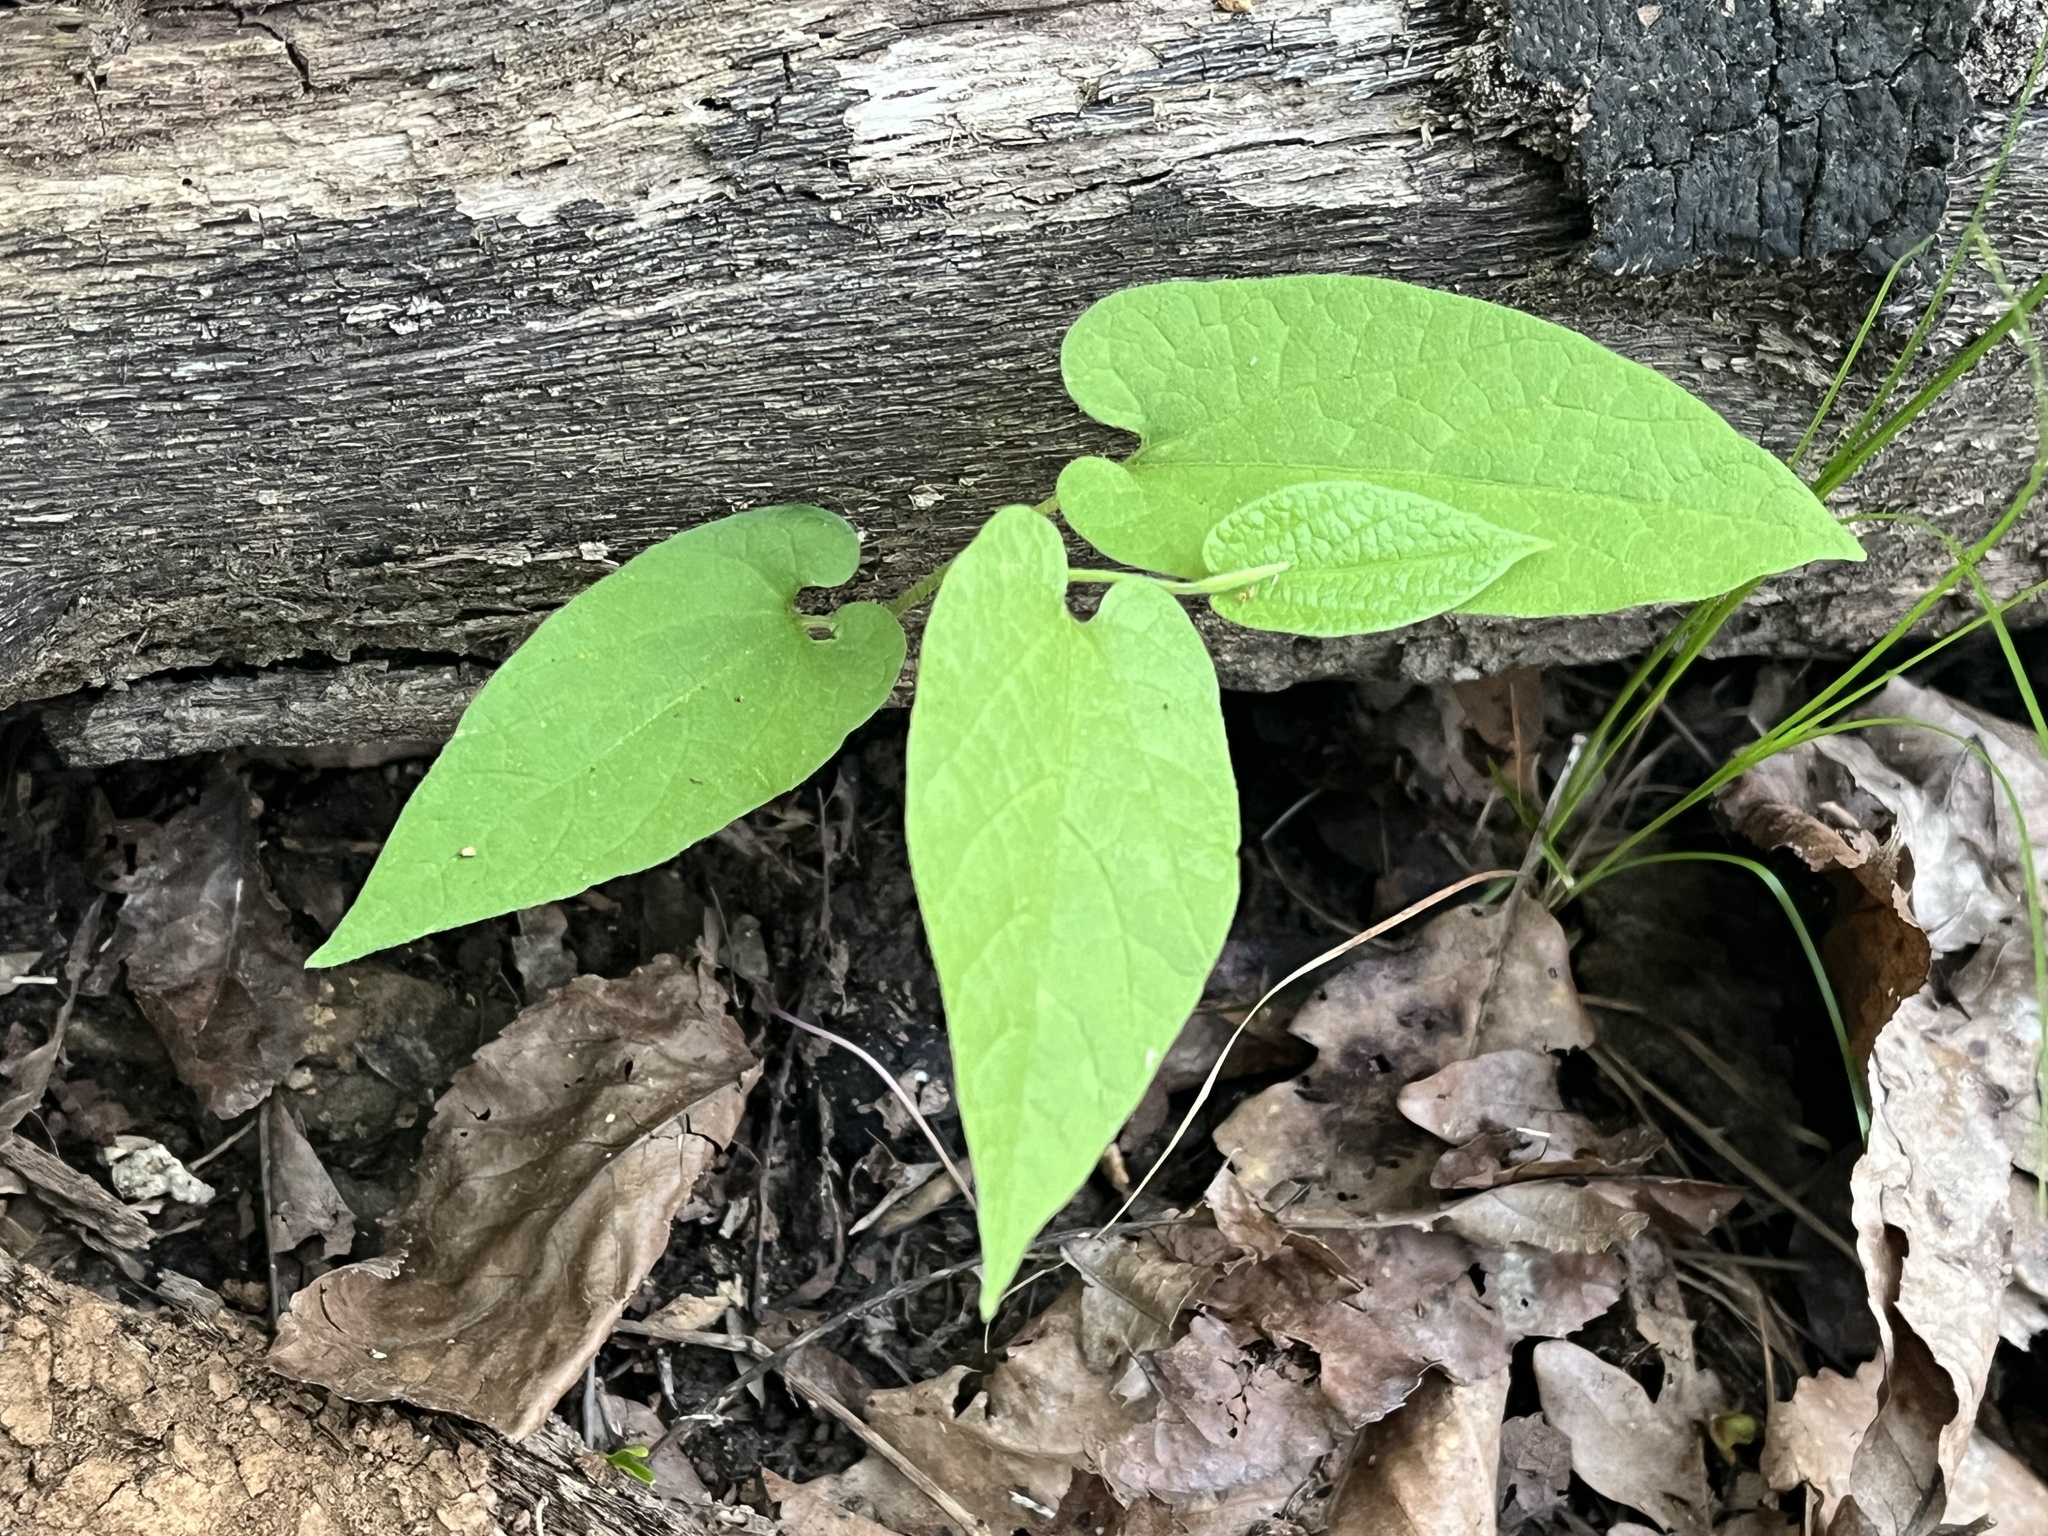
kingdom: Plantae
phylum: Tracheophyta
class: Magnoliopsida
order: Piperales
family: Aristolochiaceae
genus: Endodeca
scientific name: Endodeca serpentaria
